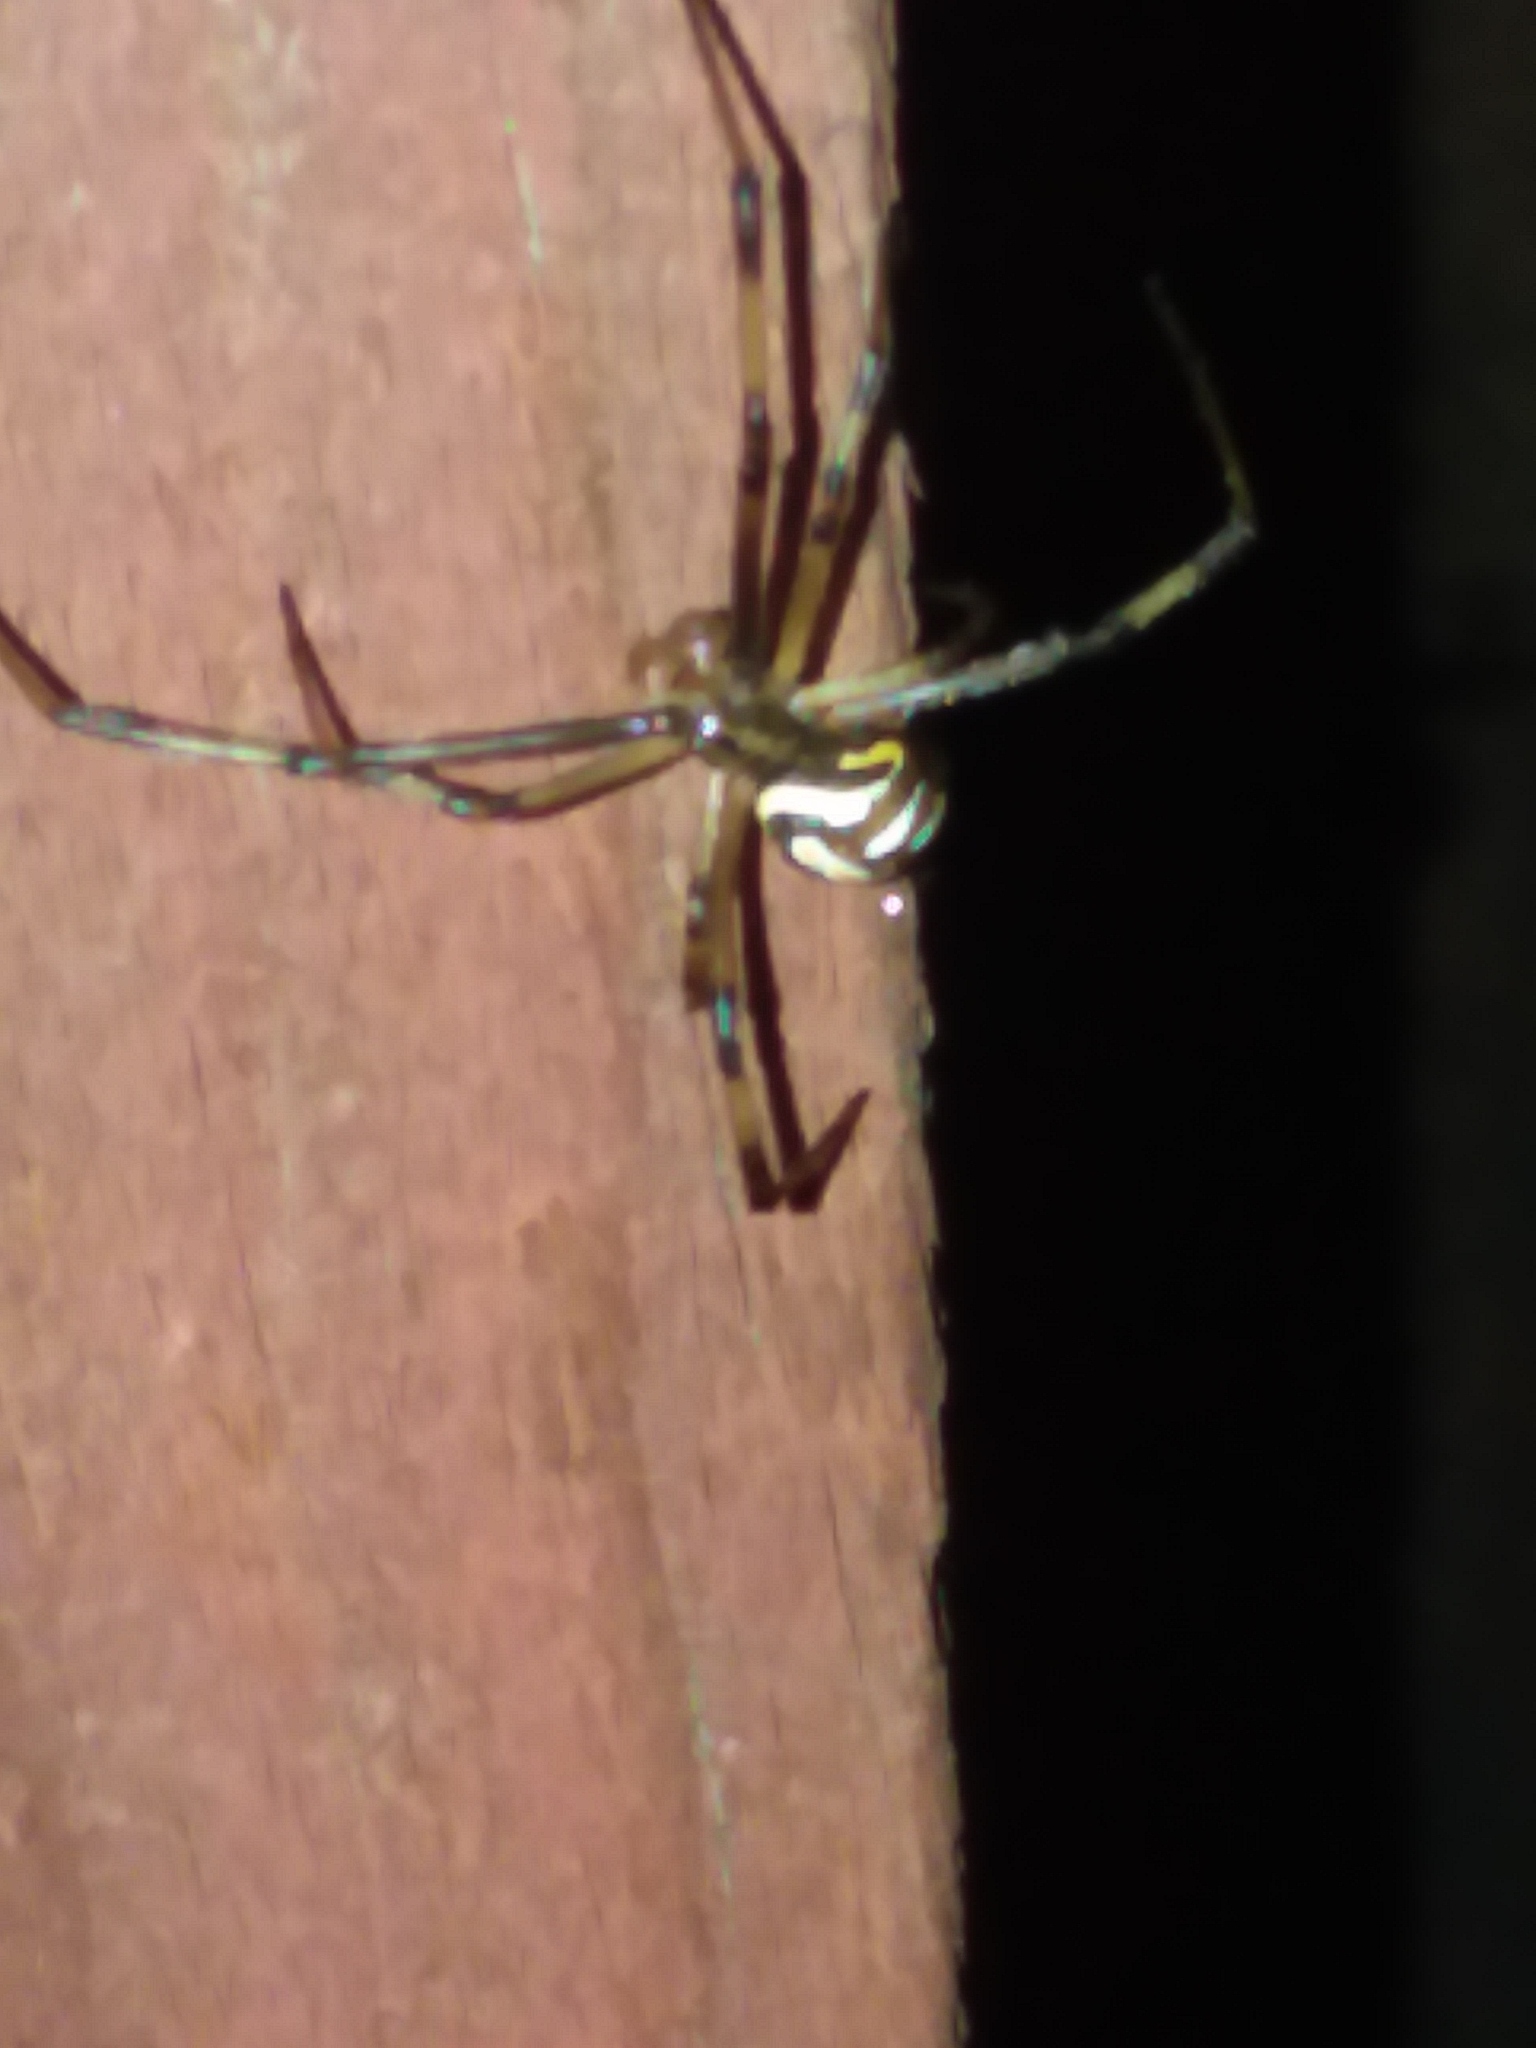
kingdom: Animalia
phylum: Arthropoda
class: Arachnida
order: Araneae
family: Theridiidae
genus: Latrodectus
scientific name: Latrodectus hesperus
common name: Western black widow
